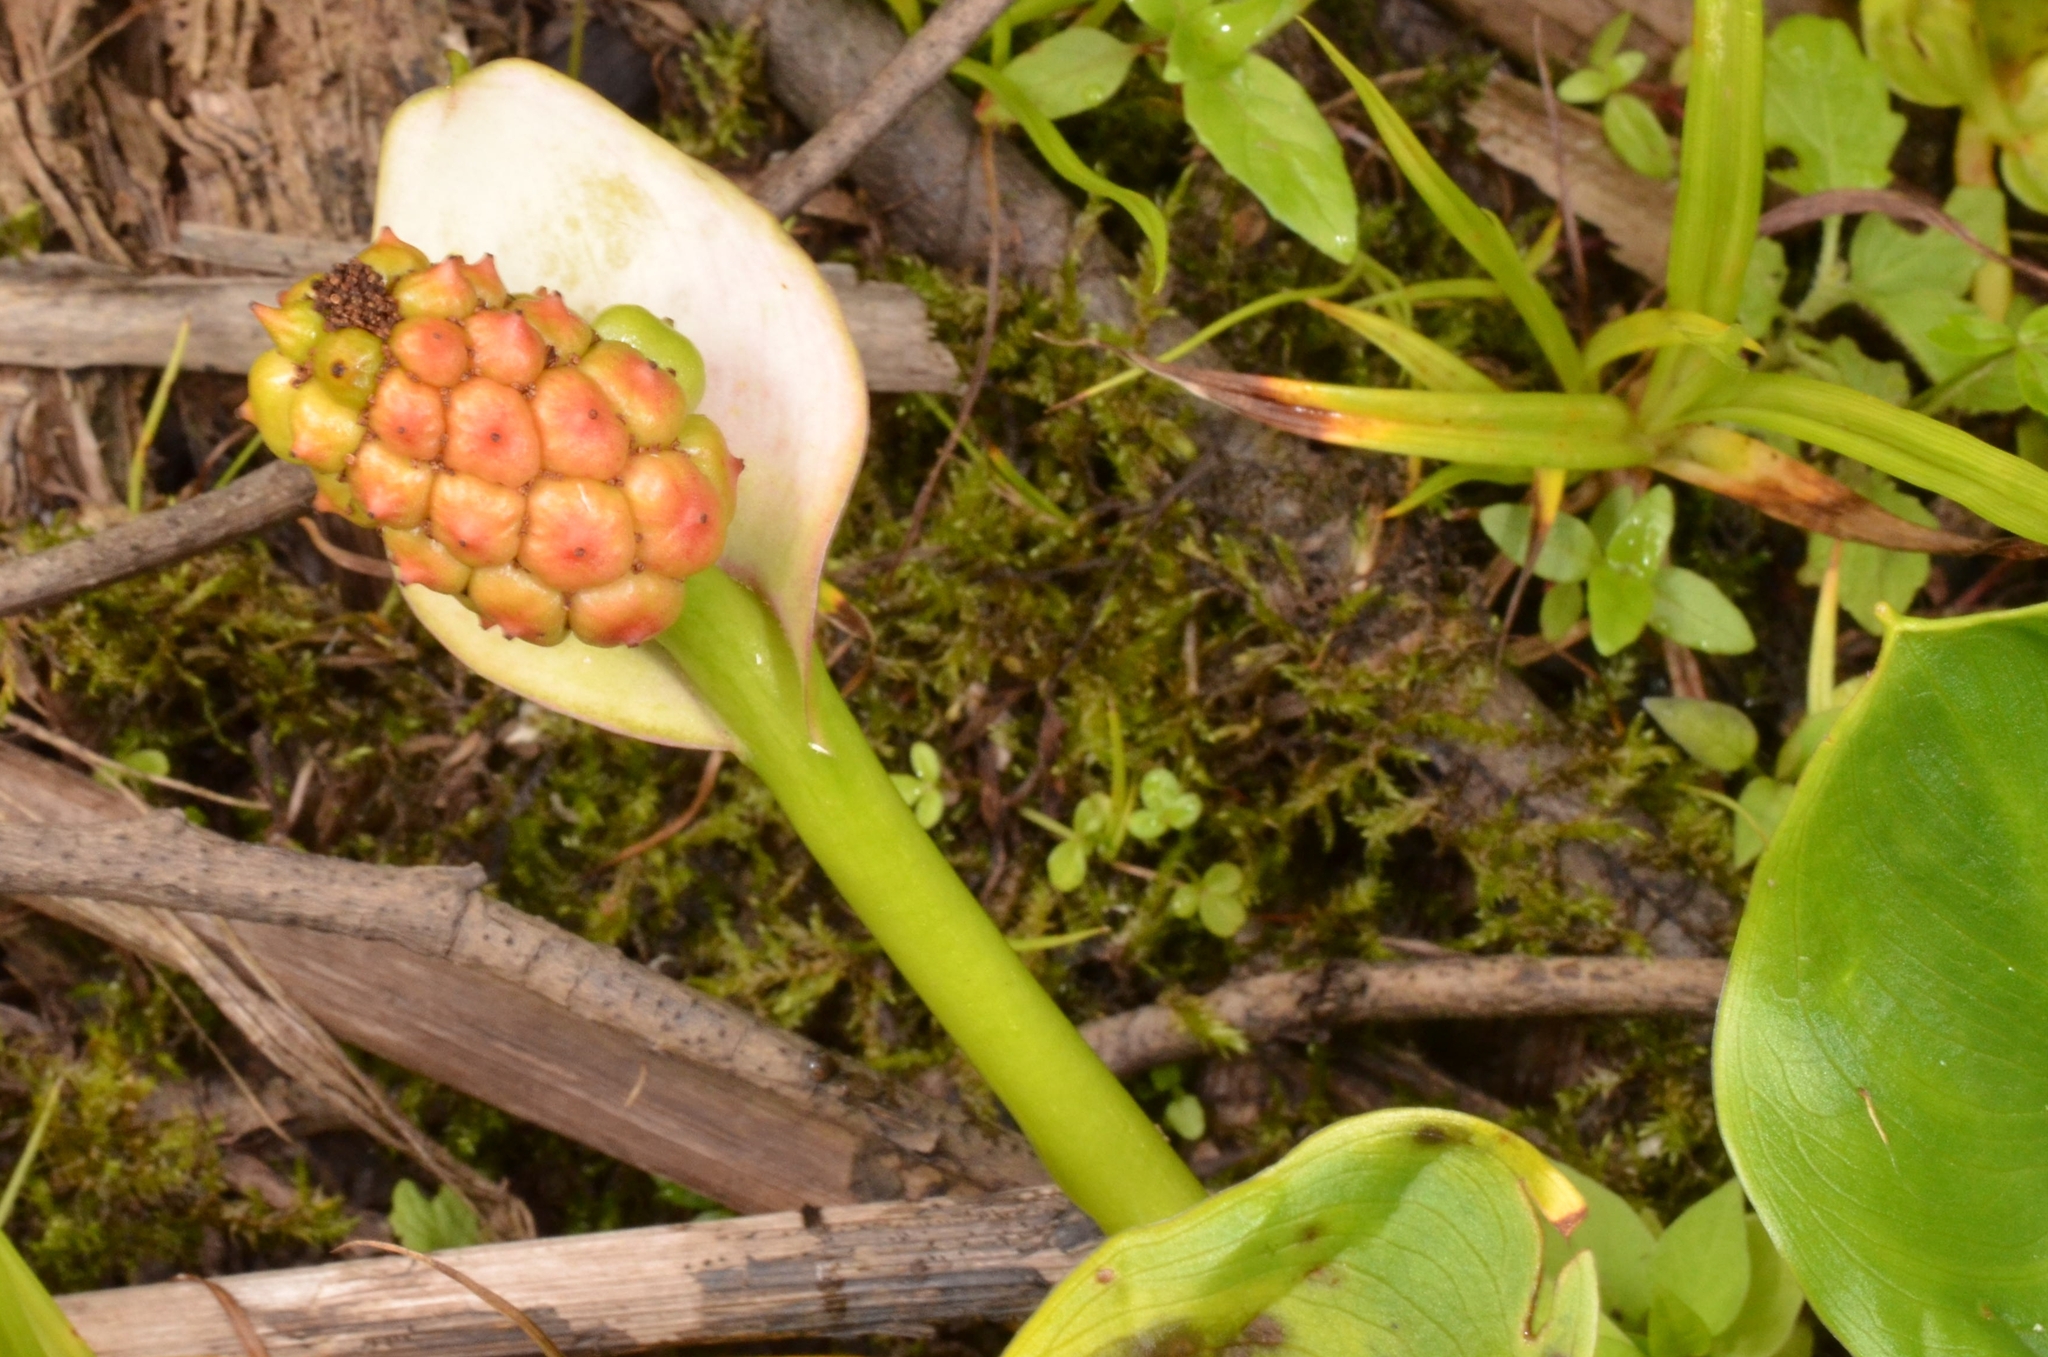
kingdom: Plantae
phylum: Tracheophyta
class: Liliopsida
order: Alismatales
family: Araceae
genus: Calla
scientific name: Calla palustris
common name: Bog arum
